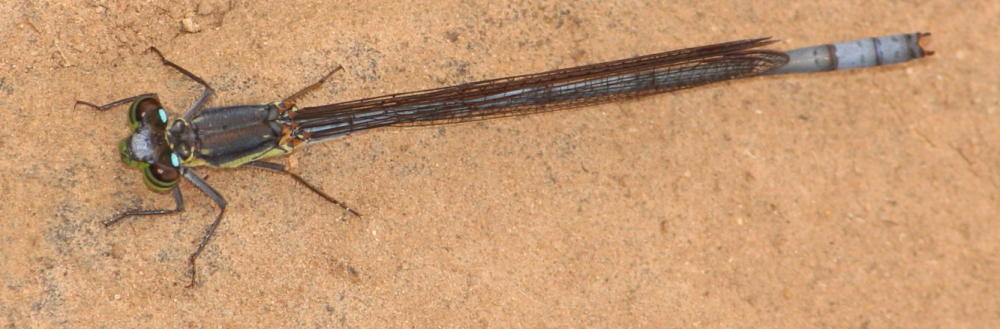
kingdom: Animalia
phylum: Arthropoda
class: Insecta
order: Odonata
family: Coenagrionidae
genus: Pseudagrion
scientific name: Pseudagrion spernatum
